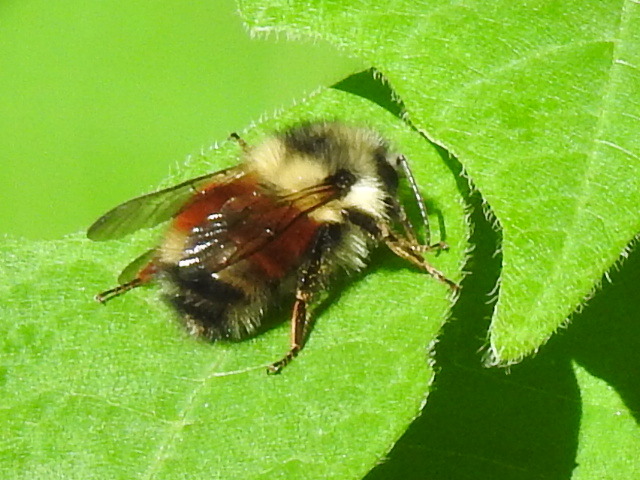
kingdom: Animalia
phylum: Arthropoda
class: Insecta
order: Hymenoptera
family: Apidae
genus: Bombus
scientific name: Bombus melanopygus
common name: Black tail bumble bee
